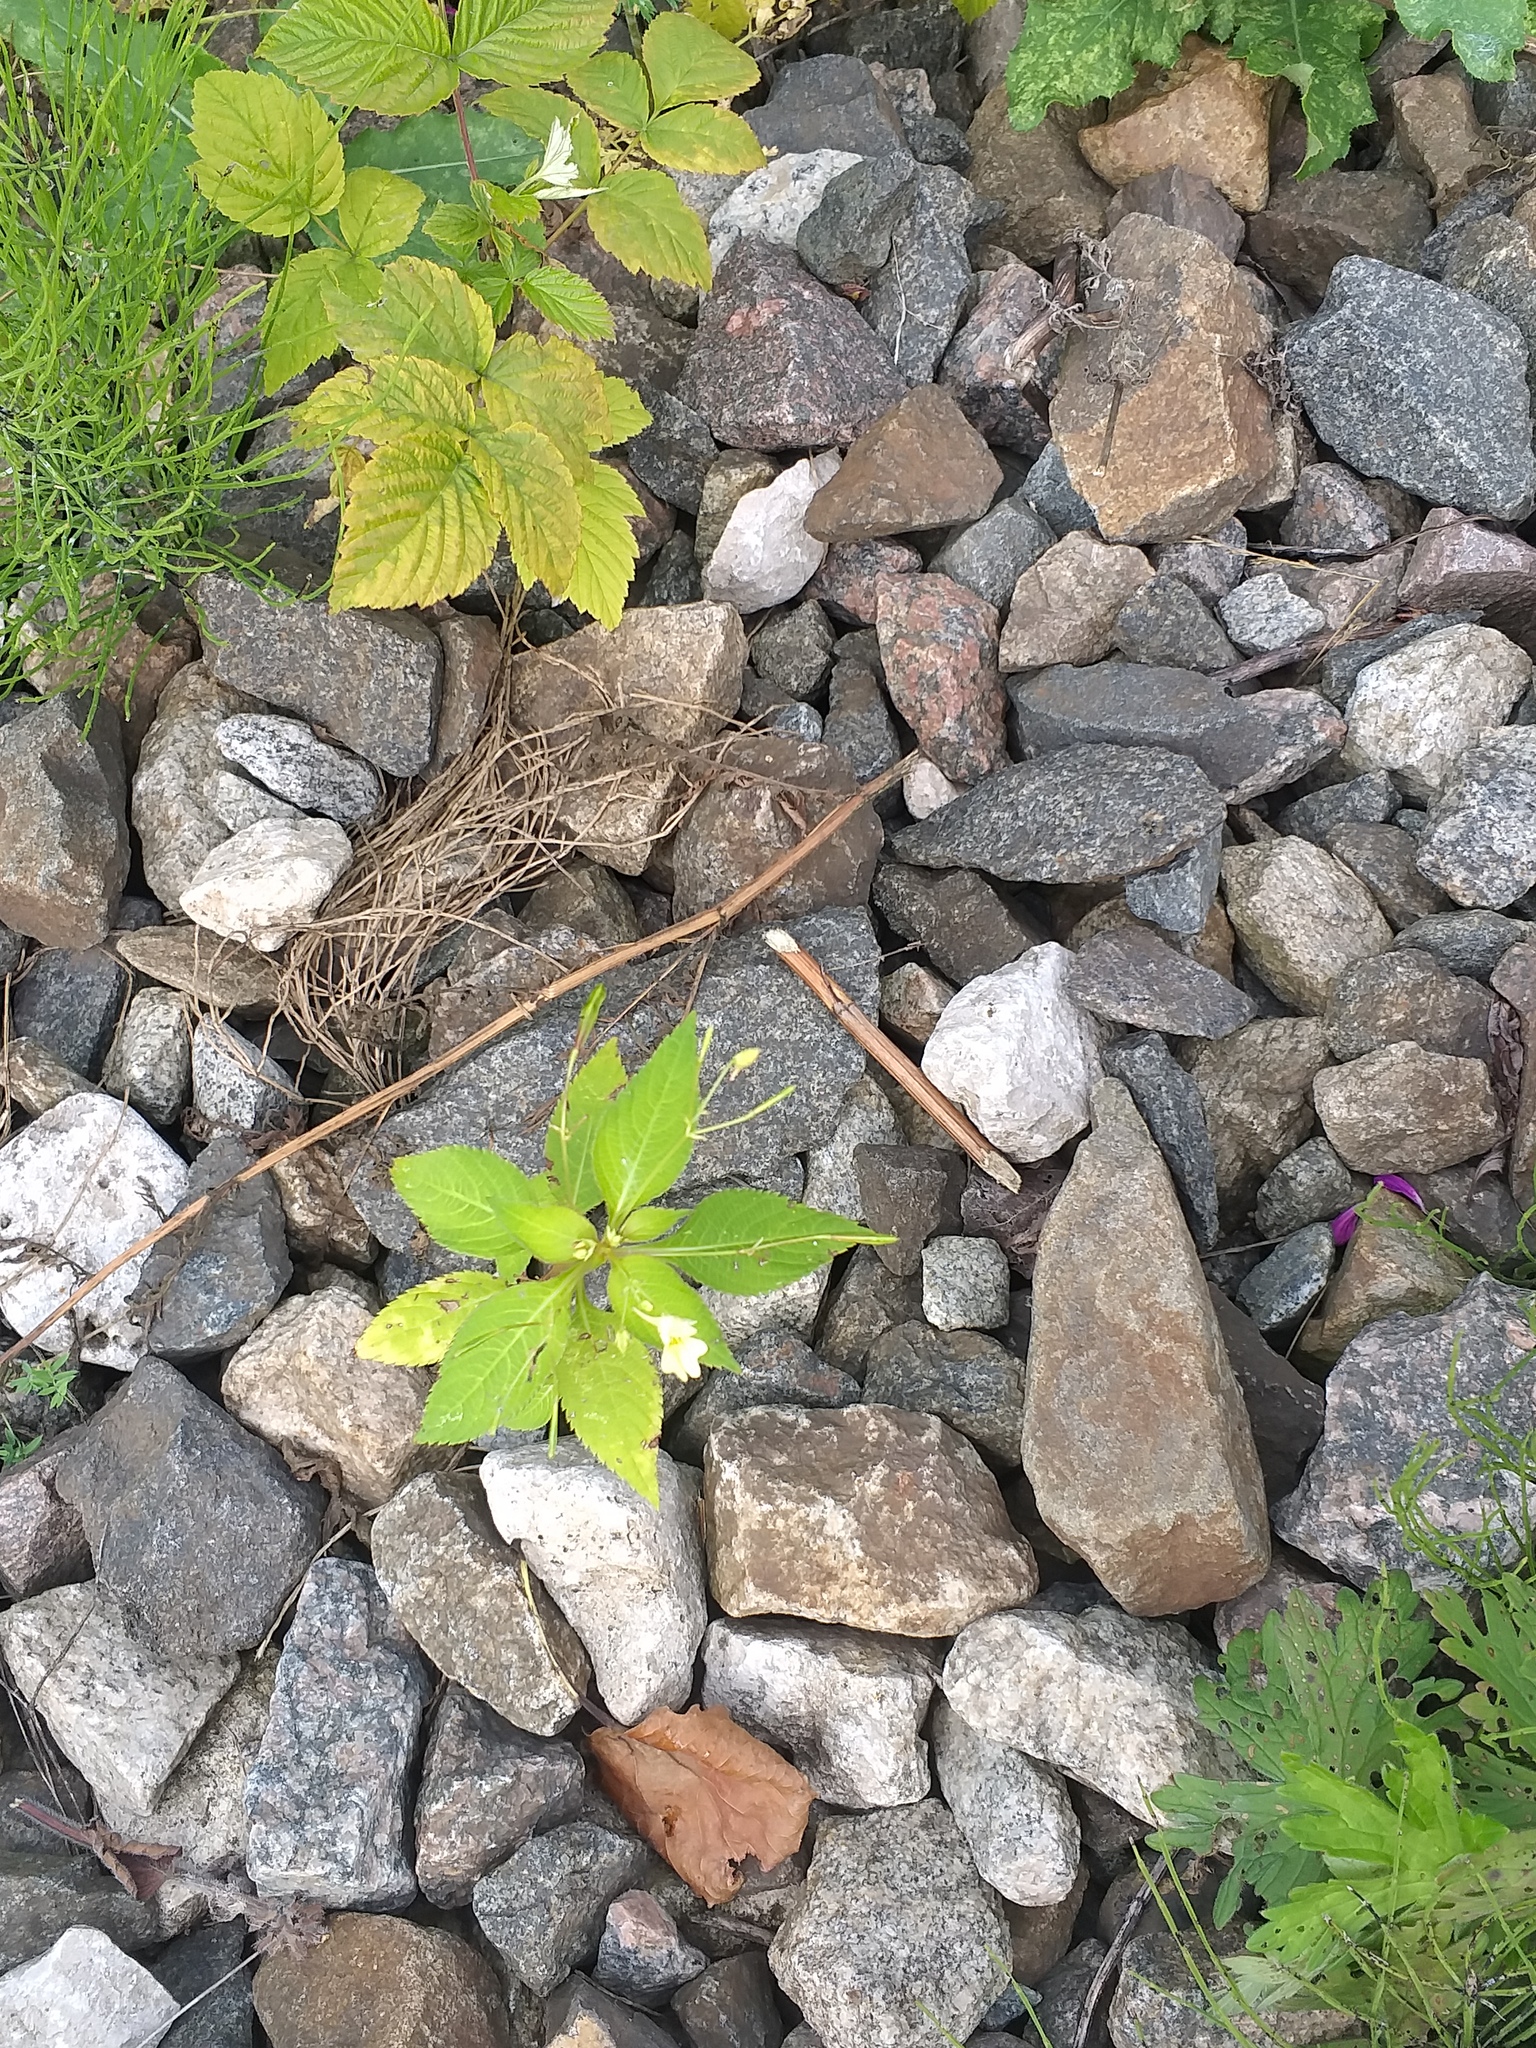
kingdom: Plantae
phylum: Tracheophyta
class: Magnoliopsida
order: Ericales
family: Balsaminaceae
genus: Impatiens
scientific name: Impatiens parviflora
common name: Small balsam
